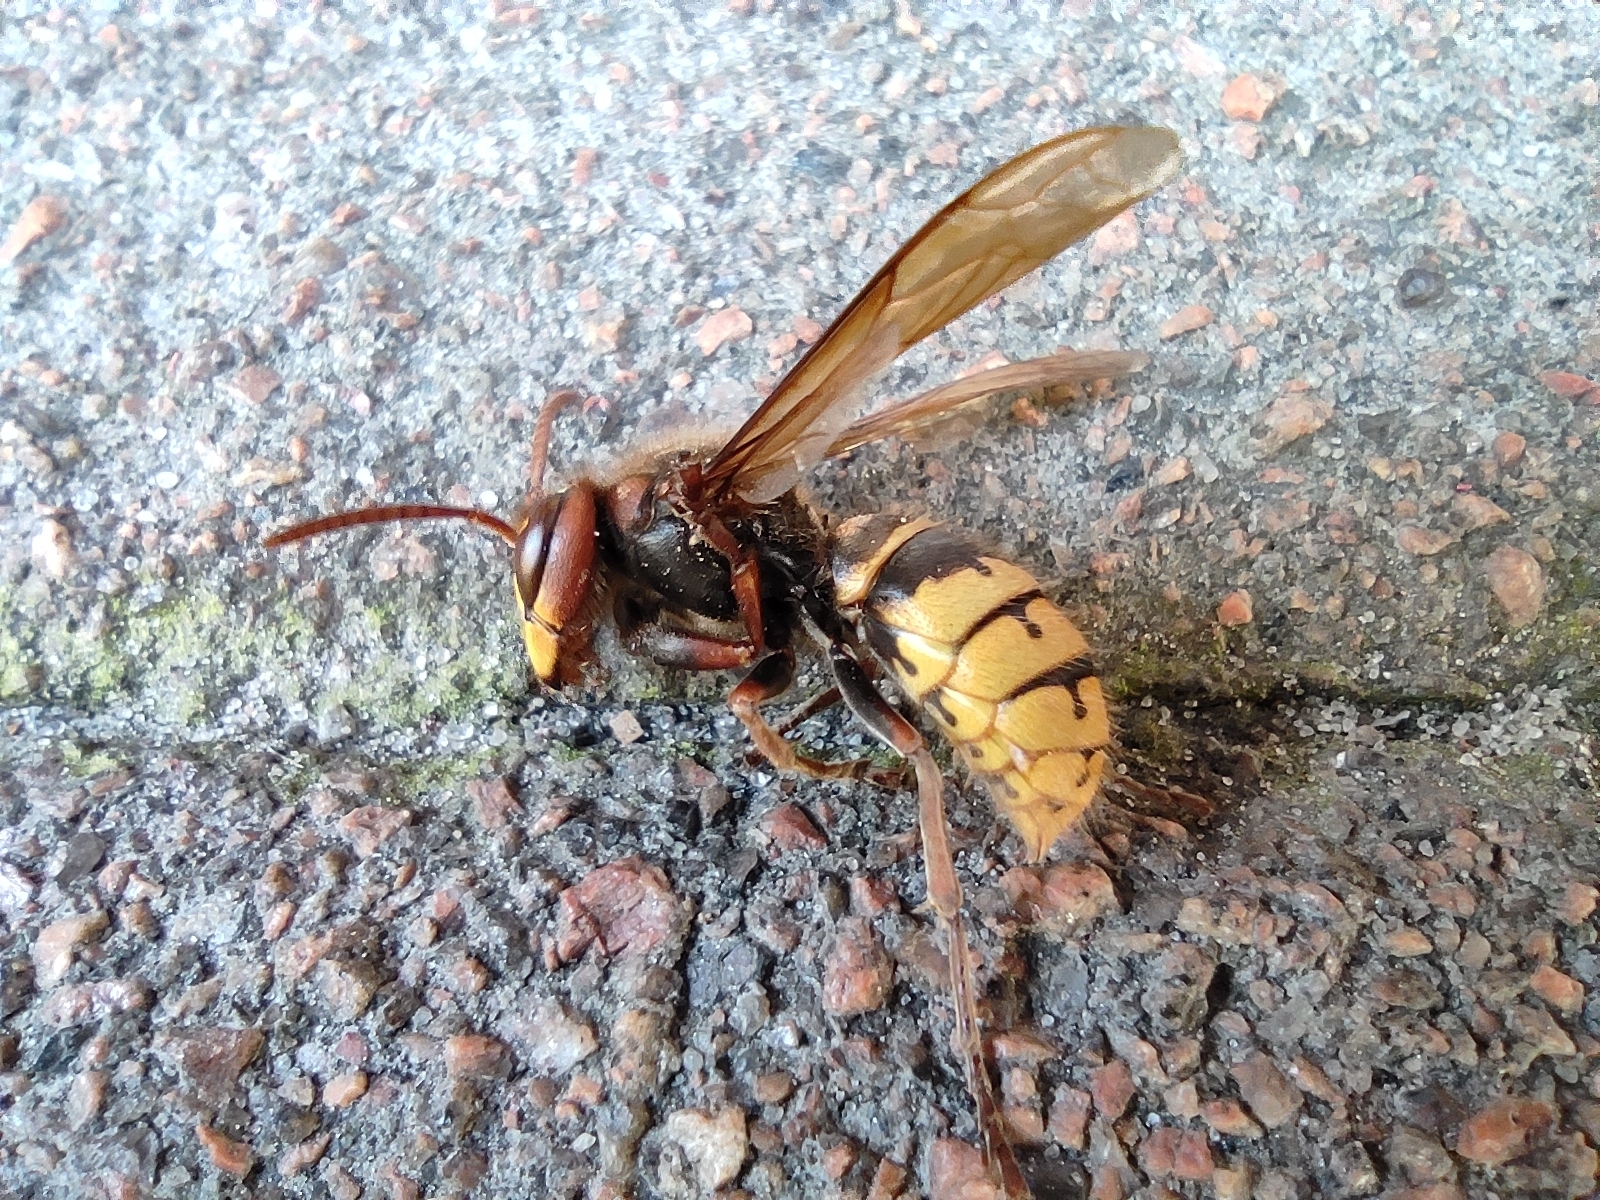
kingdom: Animalia
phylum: Arthropoda
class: Insecta
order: Hymenoptera
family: Vespidae
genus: Vespa
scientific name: Vespa crabro
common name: Hornet
